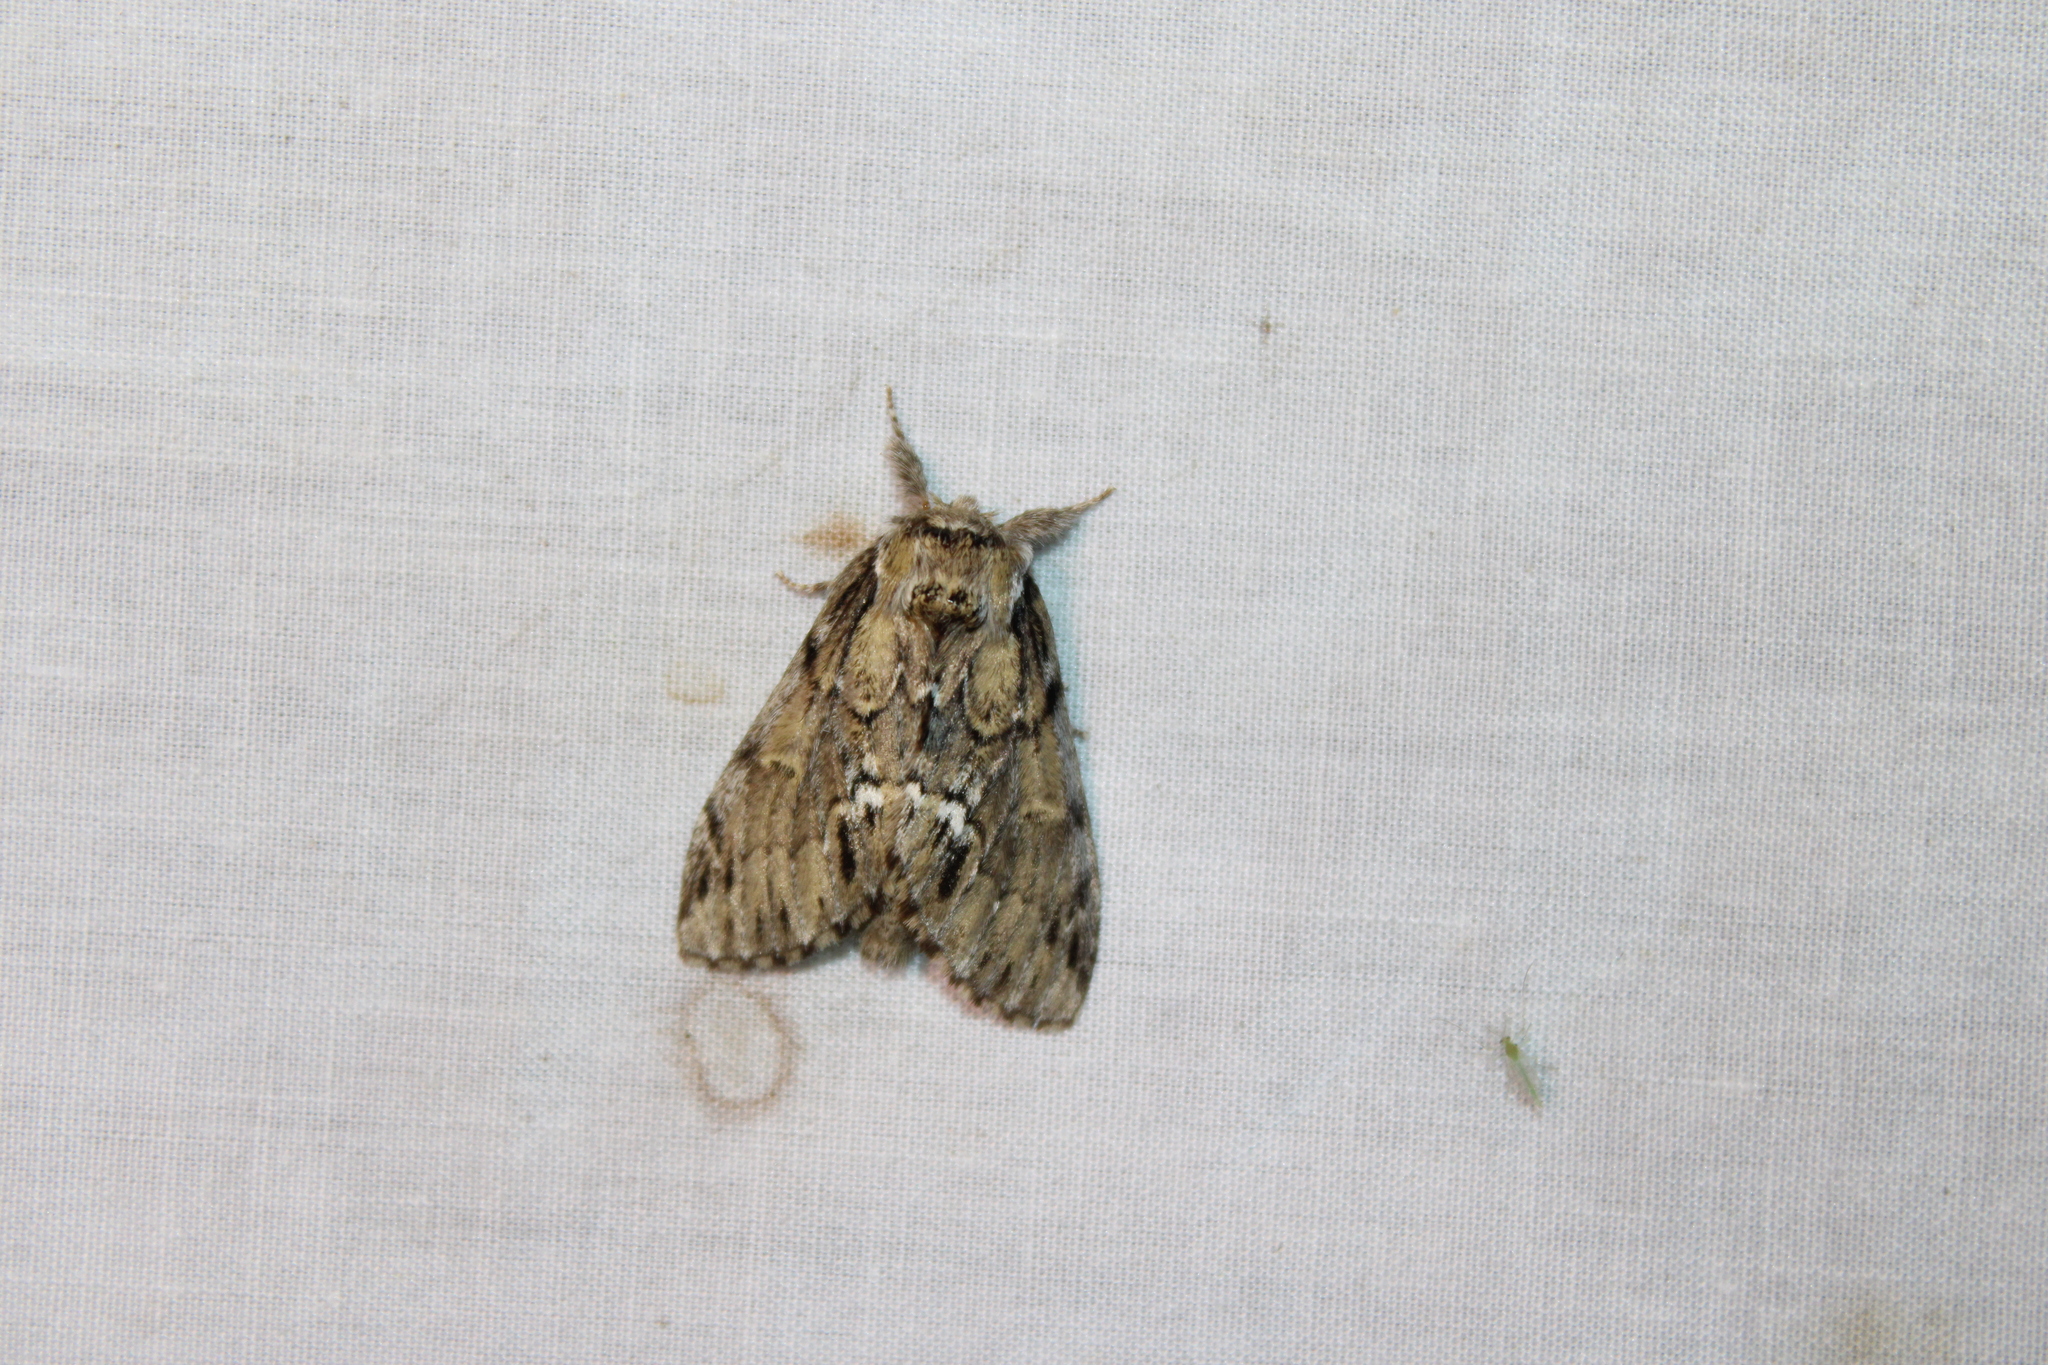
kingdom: Animalia
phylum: Arthropoda
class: Insecta
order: Lepidoptera
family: Notodontidae
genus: Paraeschra
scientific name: Paraeschra georgica
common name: Georgian prominent
